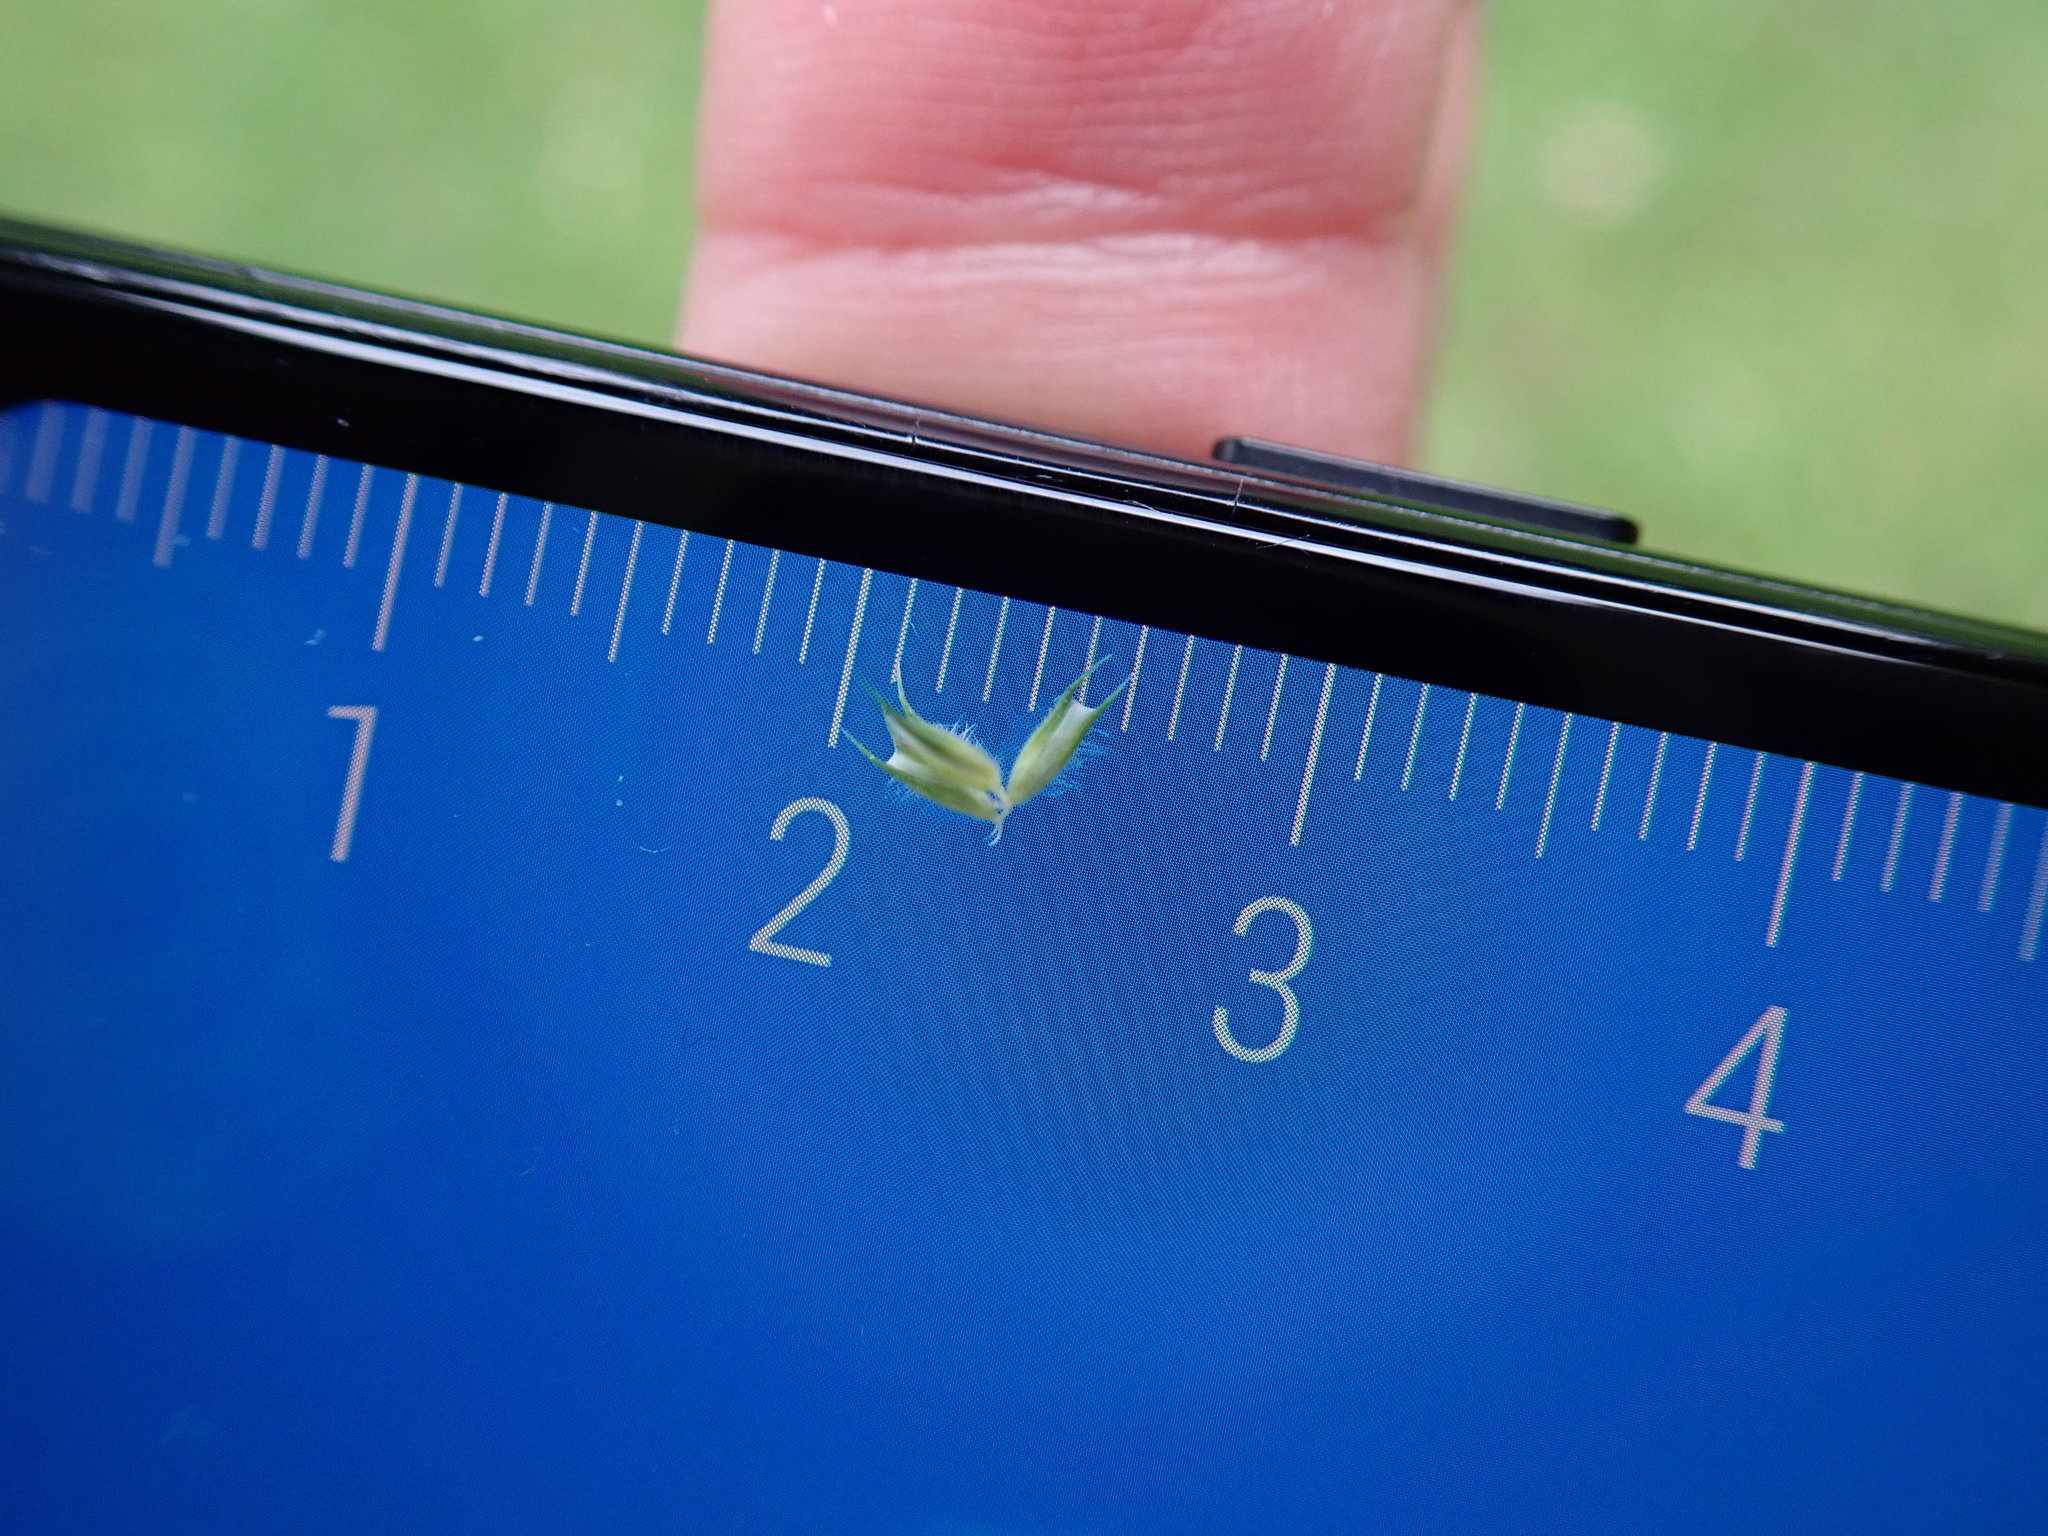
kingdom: Plantae
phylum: Tracheophyta
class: Liliopsida
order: Poales
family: Poaceae
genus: Phleum
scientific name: Phleum bertolonii
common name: Smaller cat's-tail
